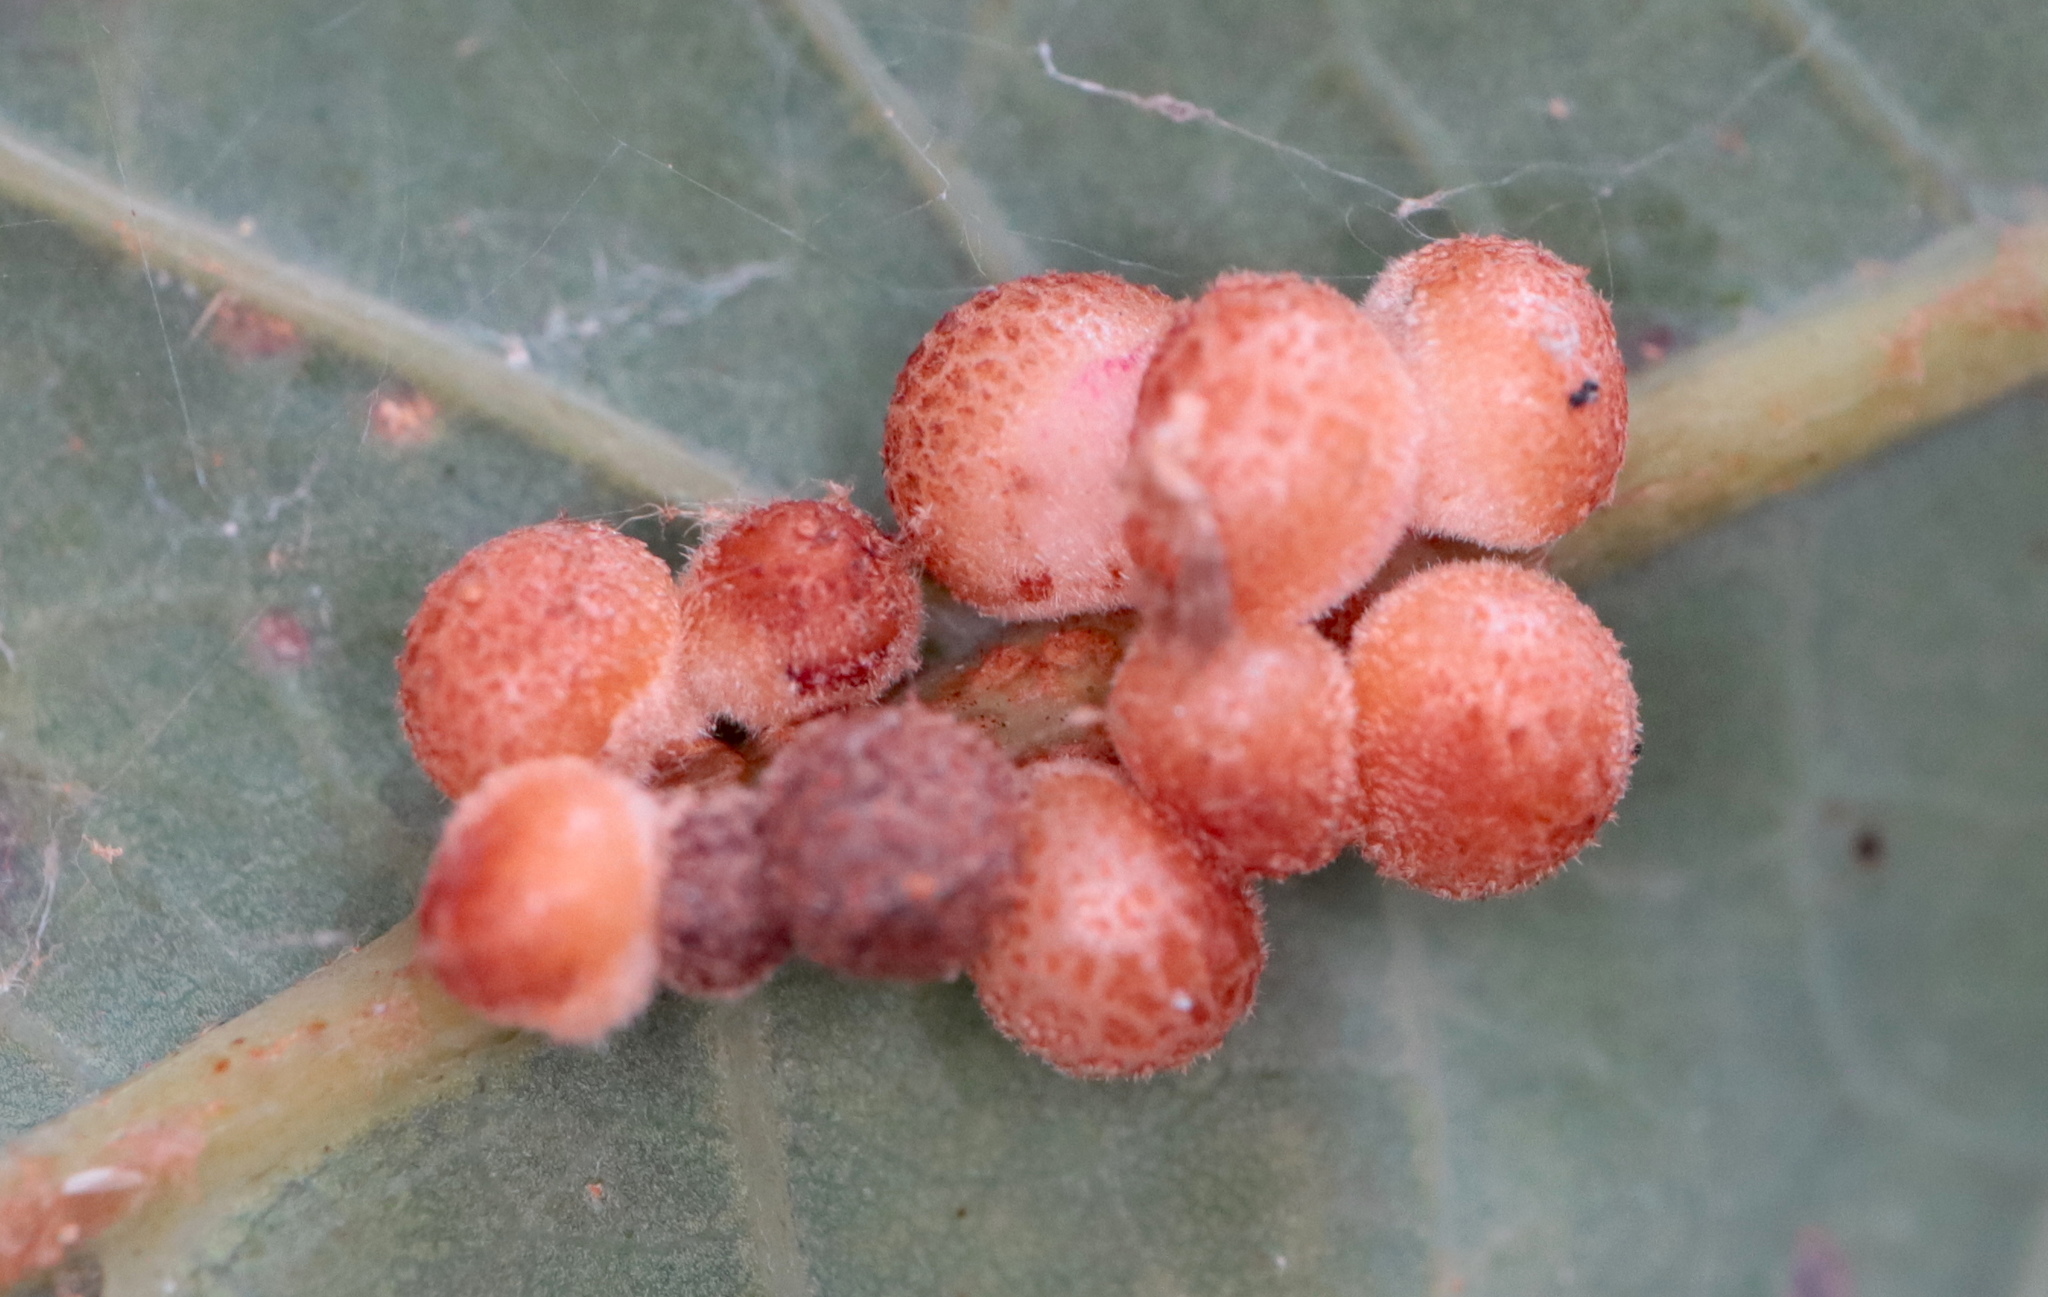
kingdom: Animalia
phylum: Arthropoda
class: Insecta
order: Hymenoptera
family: Cynipidae
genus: Andricus
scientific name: Andricus
